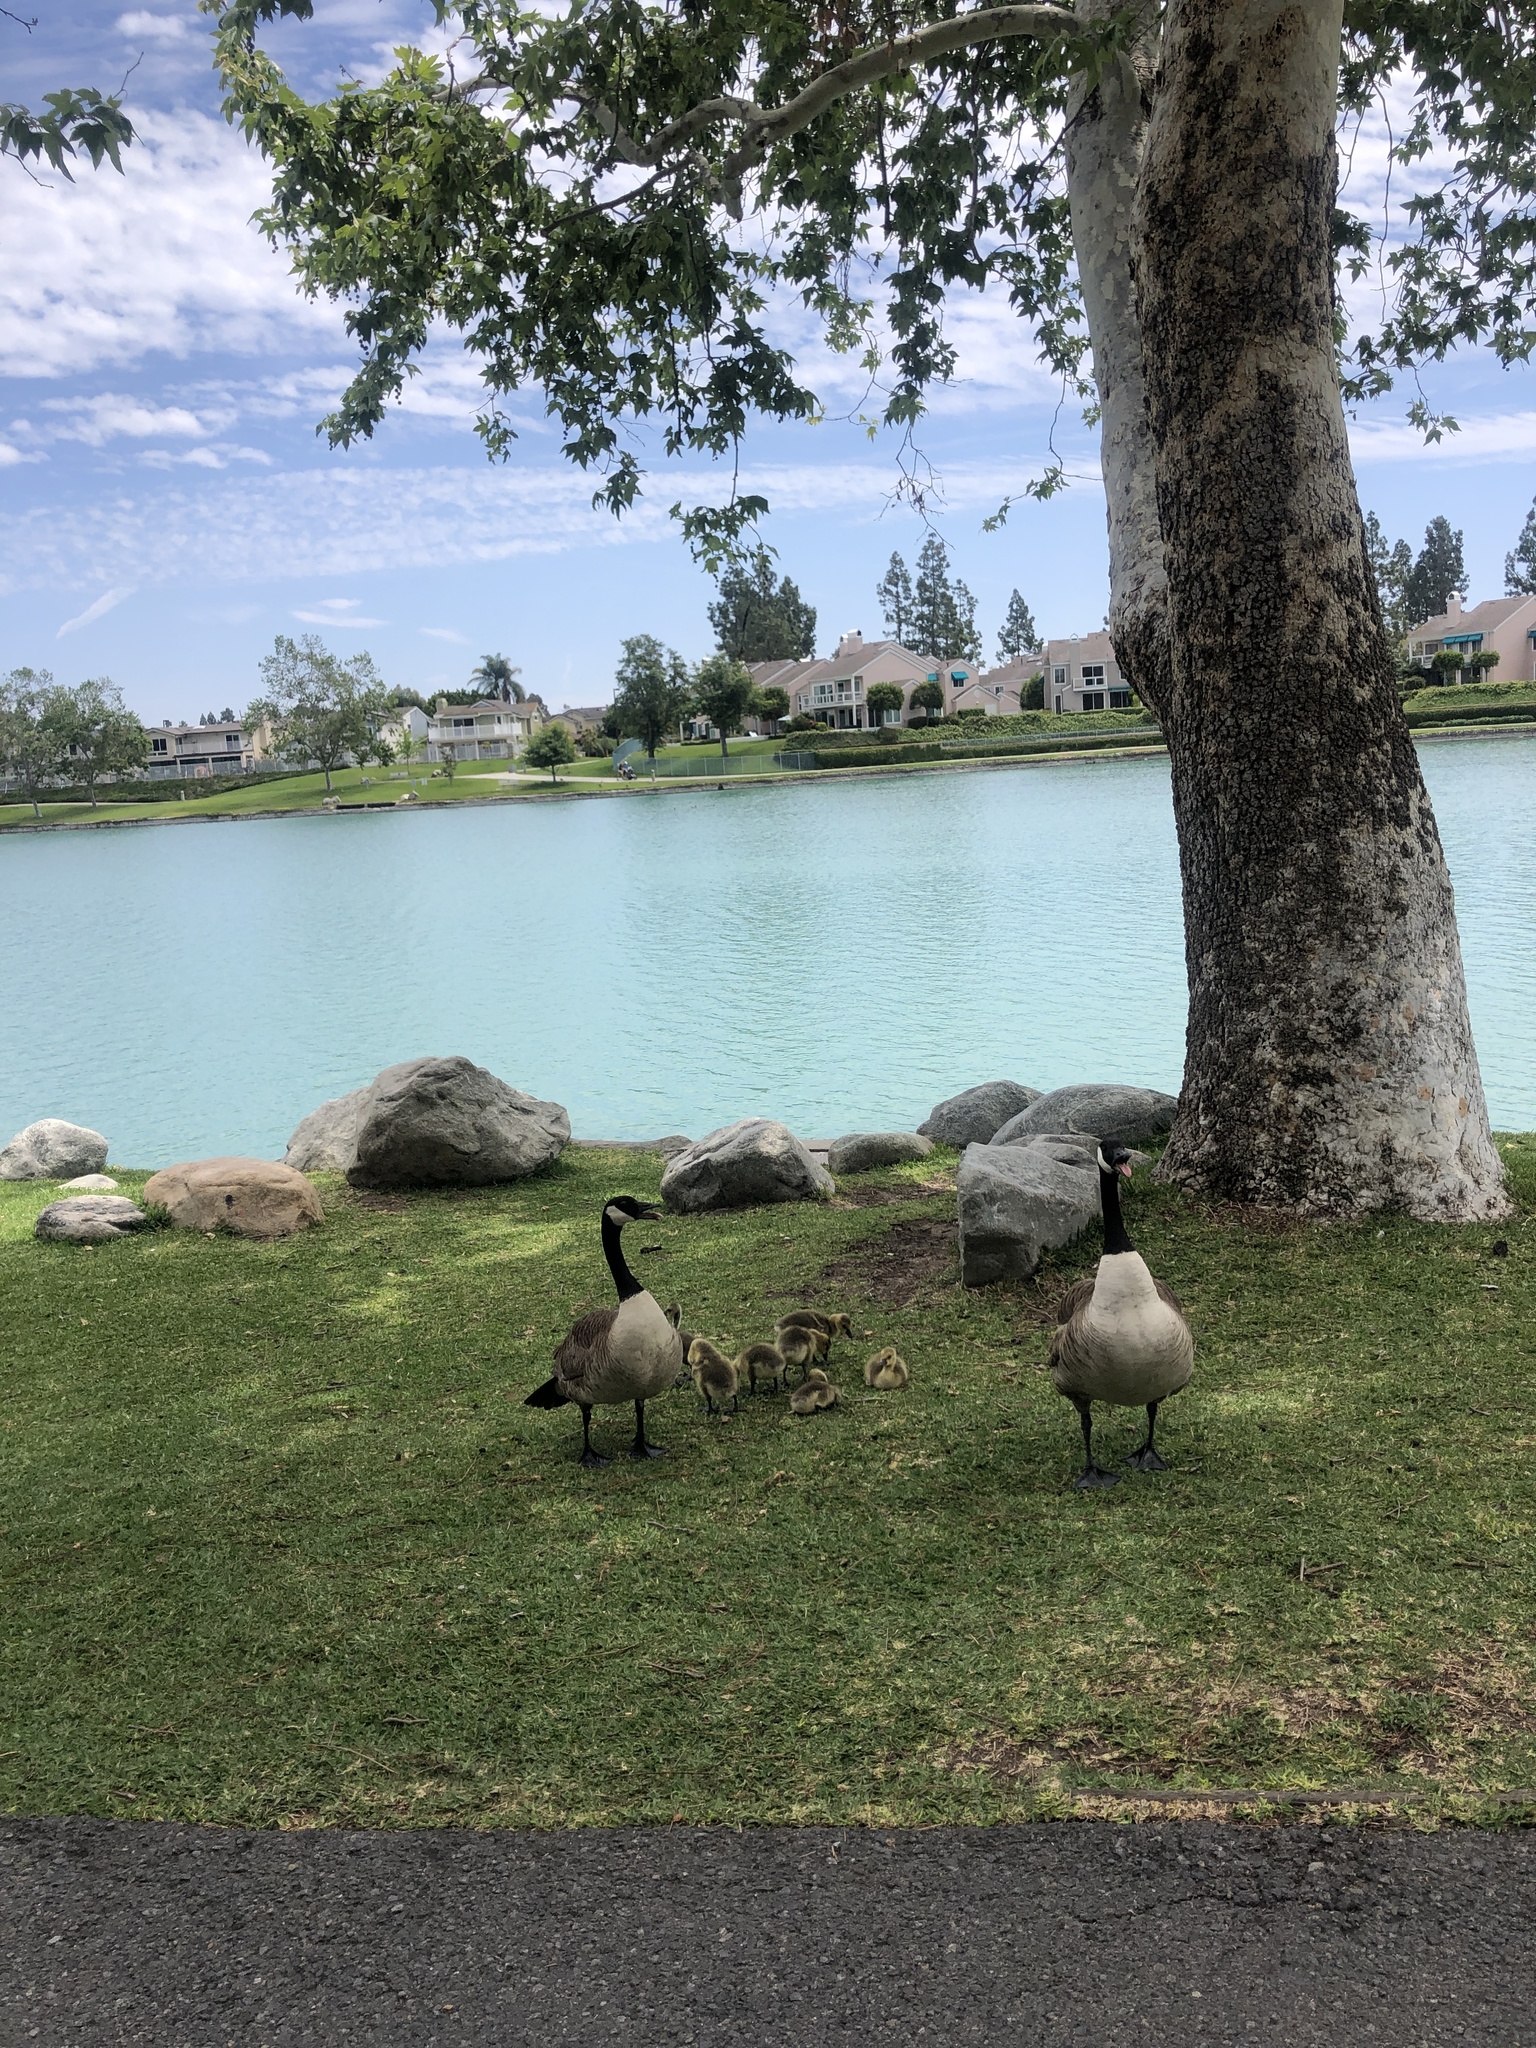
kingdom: Animalia
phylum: Chordata
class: Aves
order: Anseriformes
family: Anatidae
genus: Branta
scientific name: Branta canadensis
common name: Canada goose
